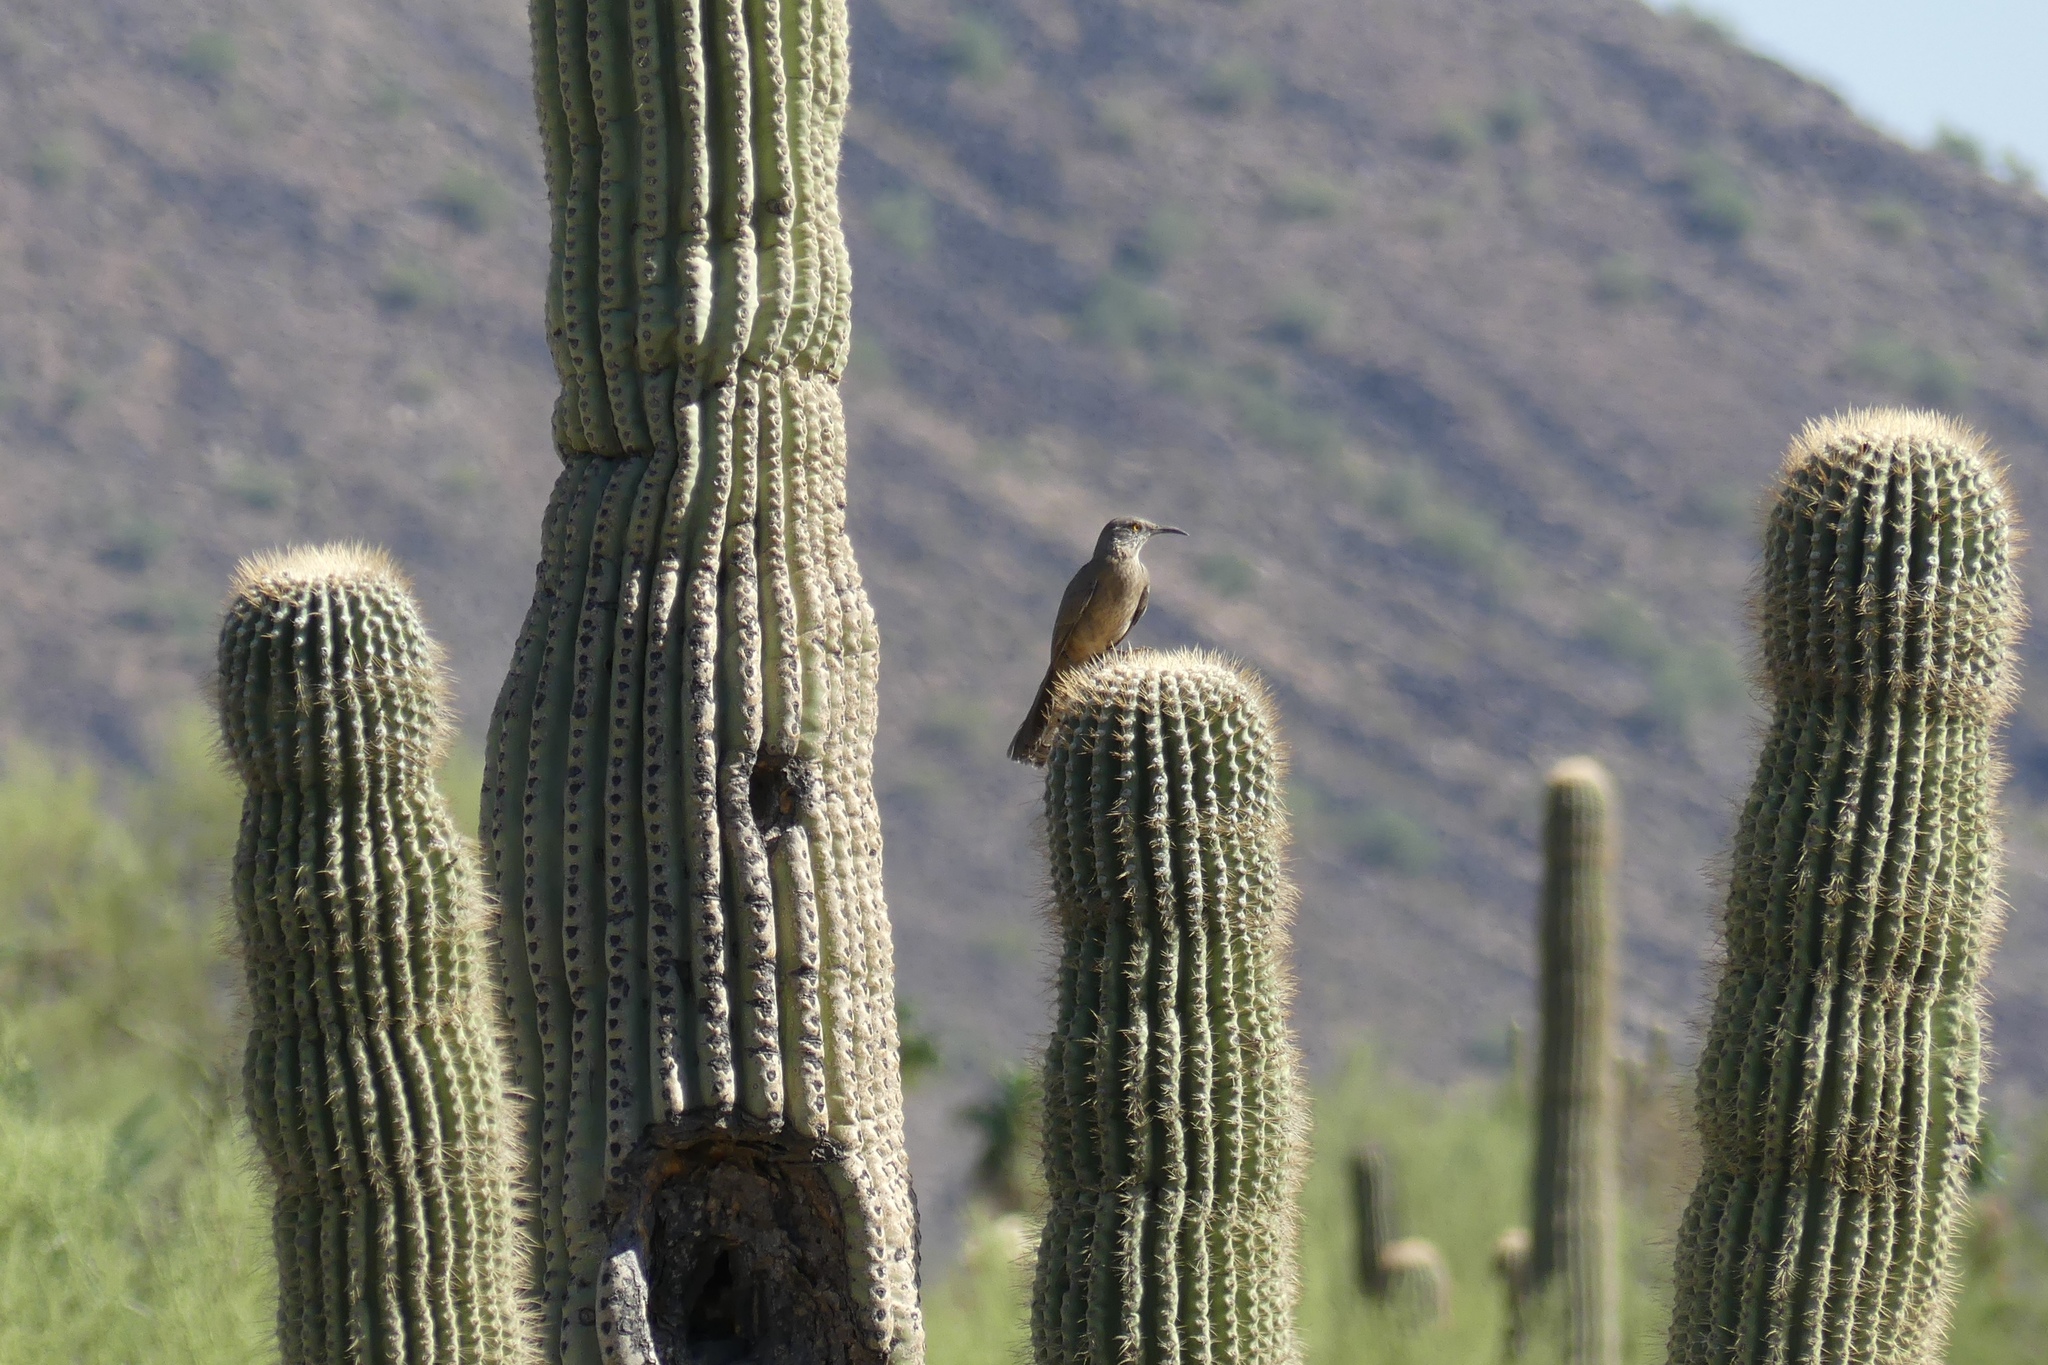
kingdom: Animalia
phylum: Chordata
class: Aves
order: Passeriformes
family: Mimidae
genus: Toxostoma
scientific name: Toxostoma curvirostre
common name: Curve-billed thrasher
